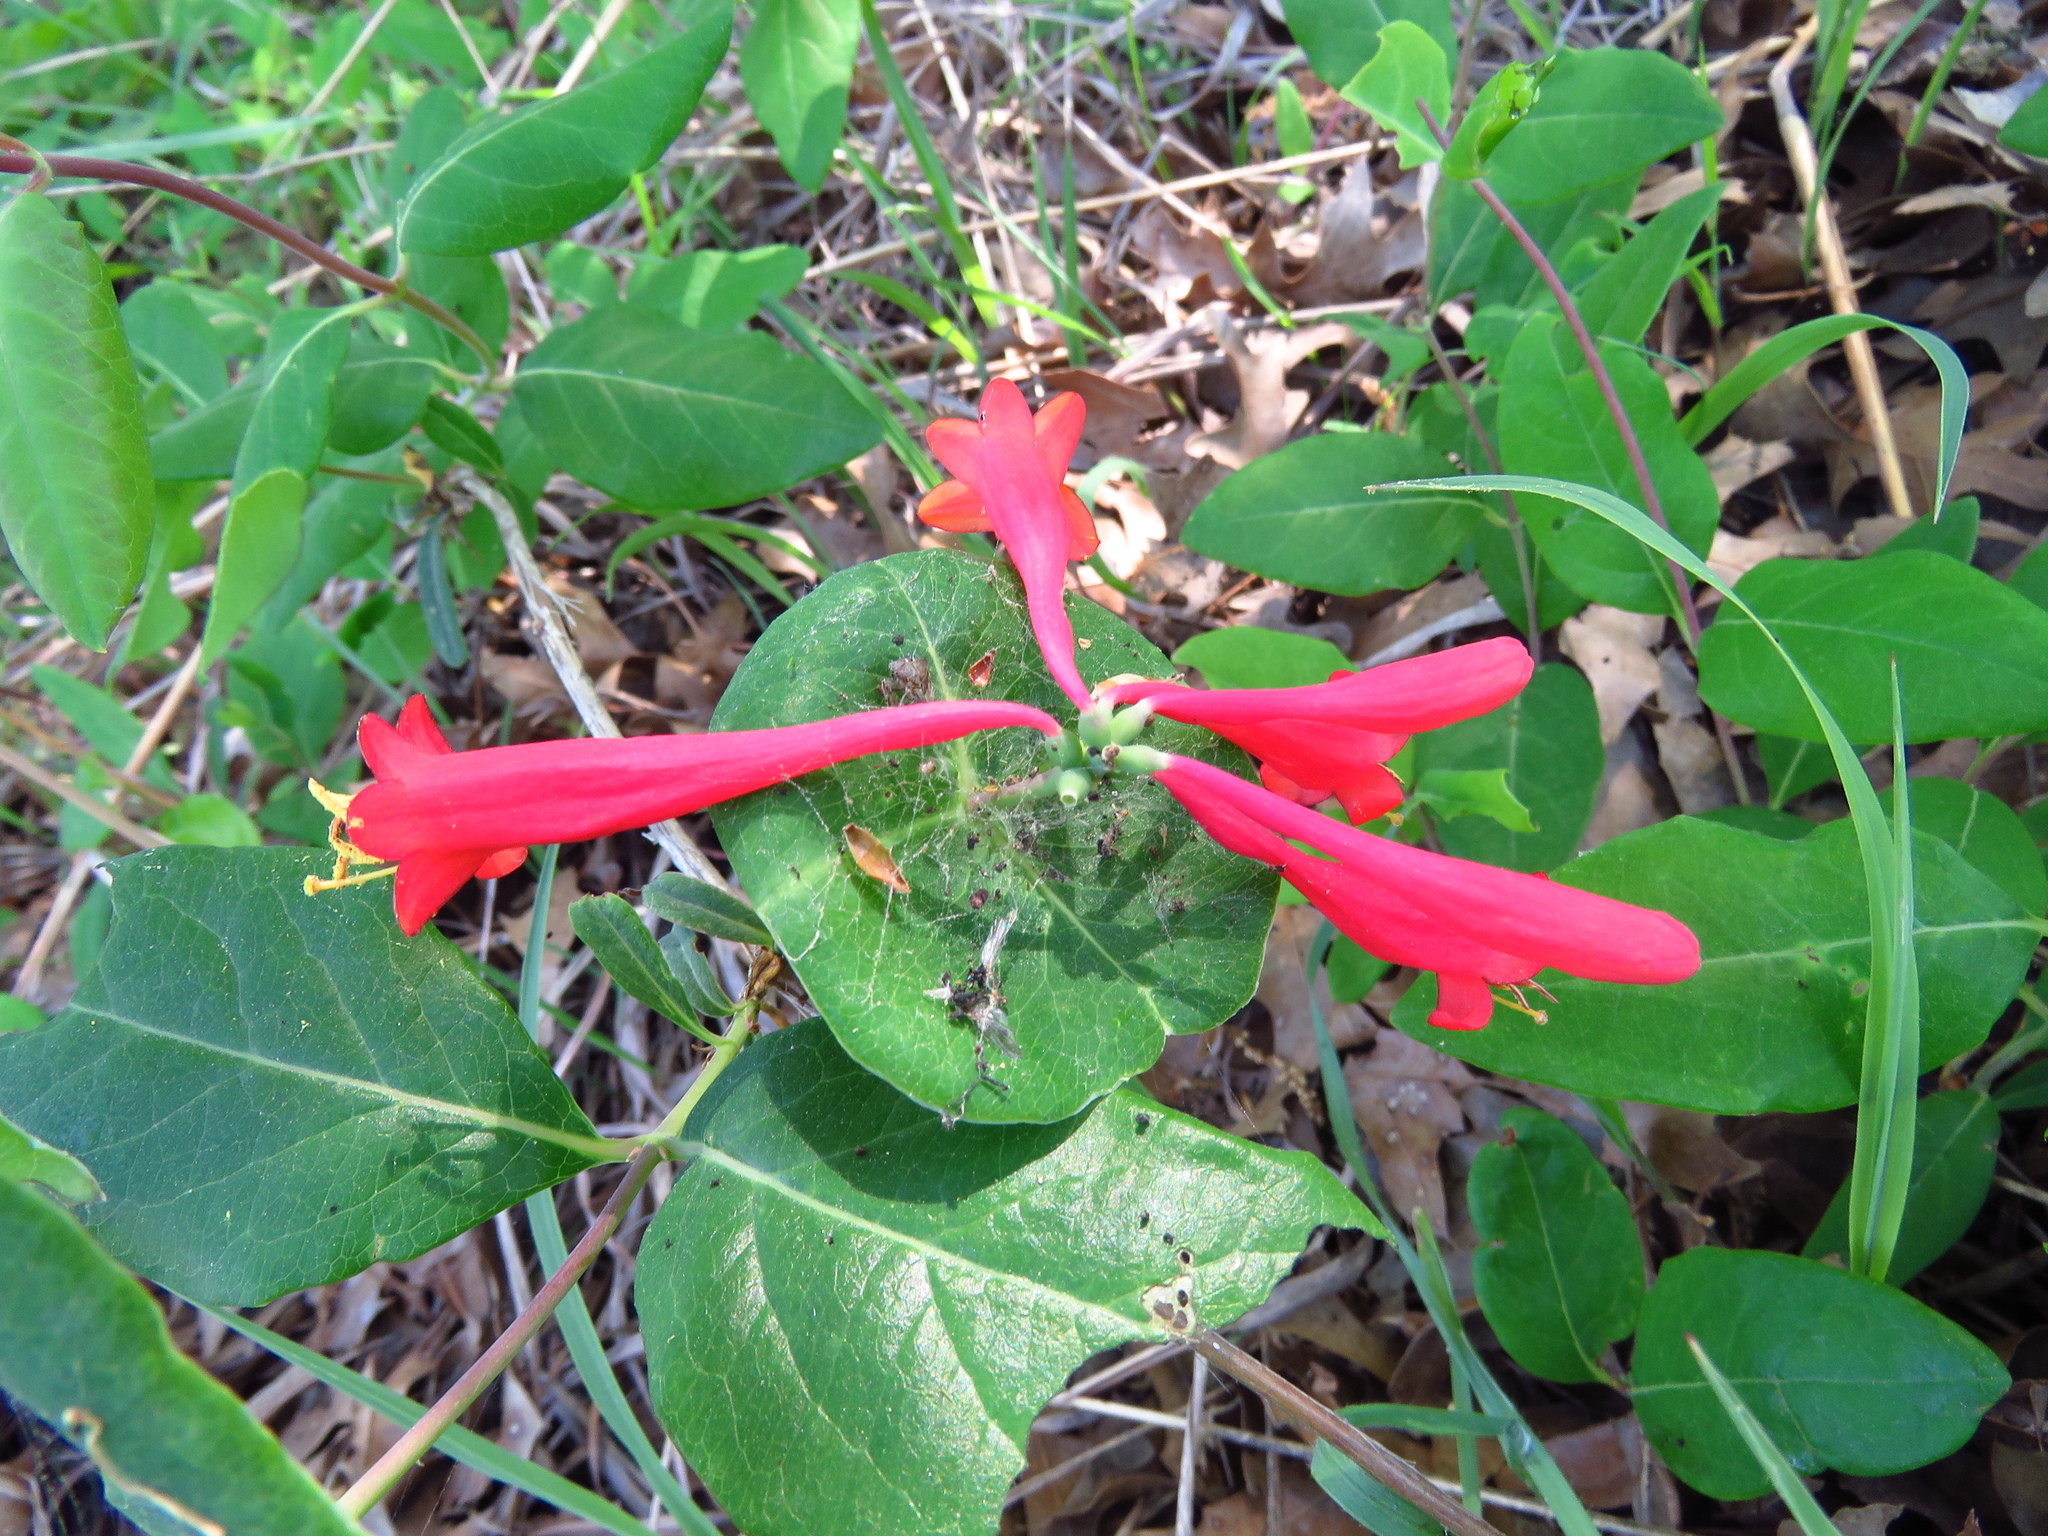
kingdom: Plantae
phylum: Tracheophyta
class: Magnoliopsida
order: Dipsacales
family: Caprifoliaceae
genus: Lonicera
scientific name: Lonicera sempervirens
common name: Coral honeysuckle
